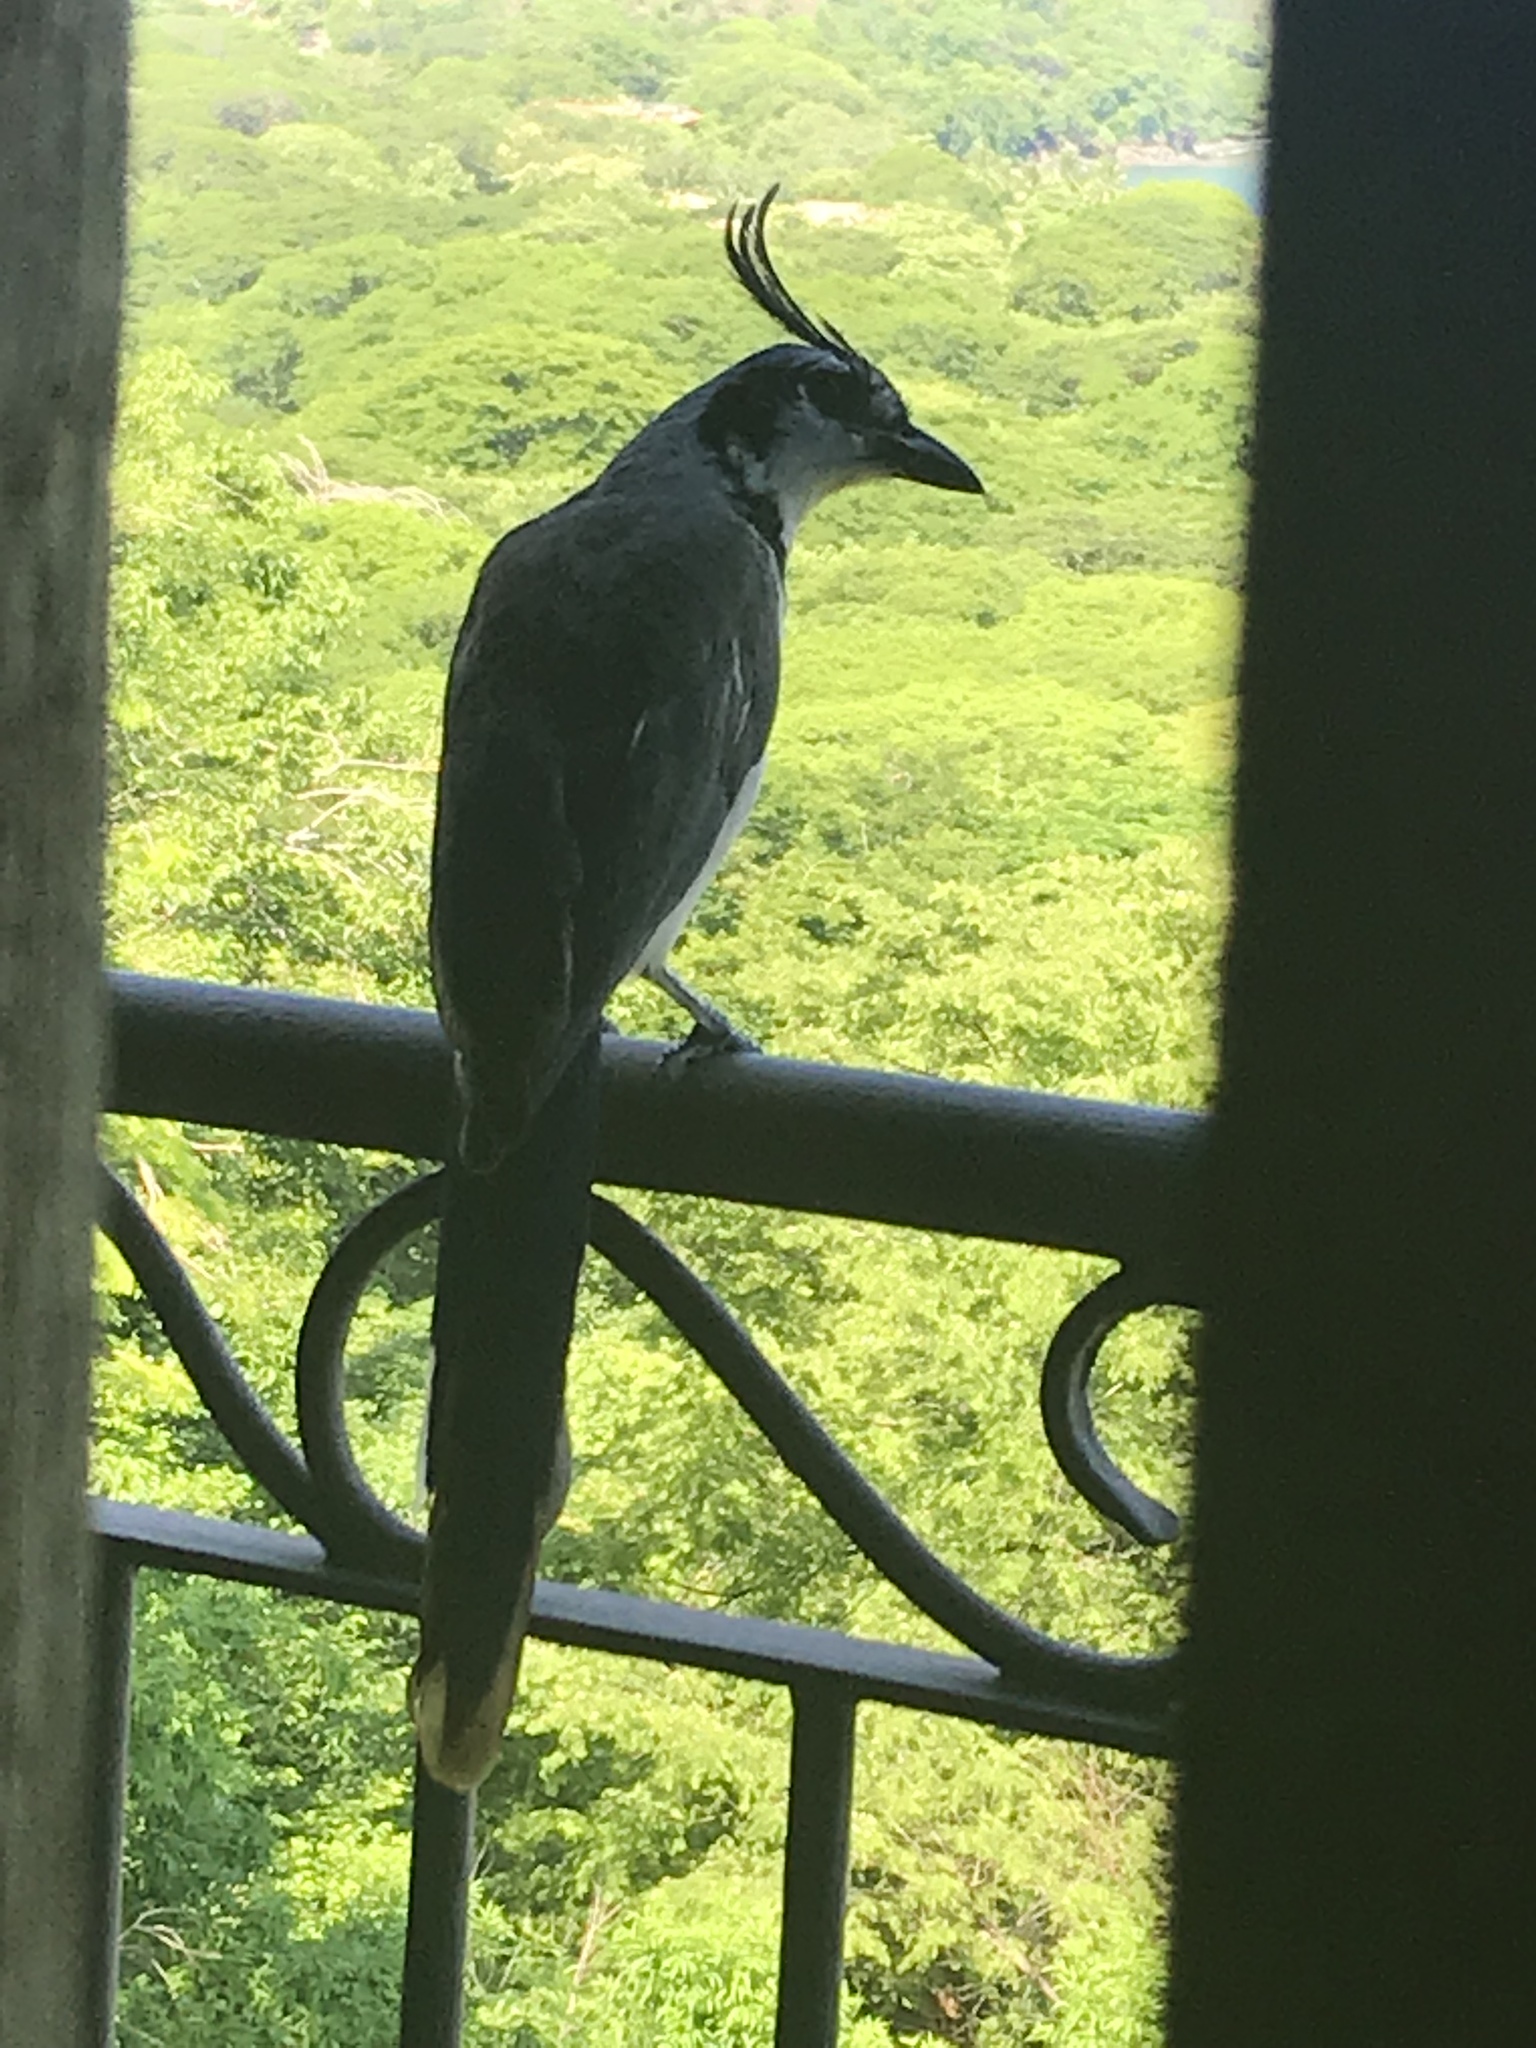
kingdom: Animalia
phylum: Chordata
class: Aves
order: Passeriformes
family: Corvidae
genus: Calocitta
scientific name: Calocitta formosa
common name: White-throated magpie-jay
